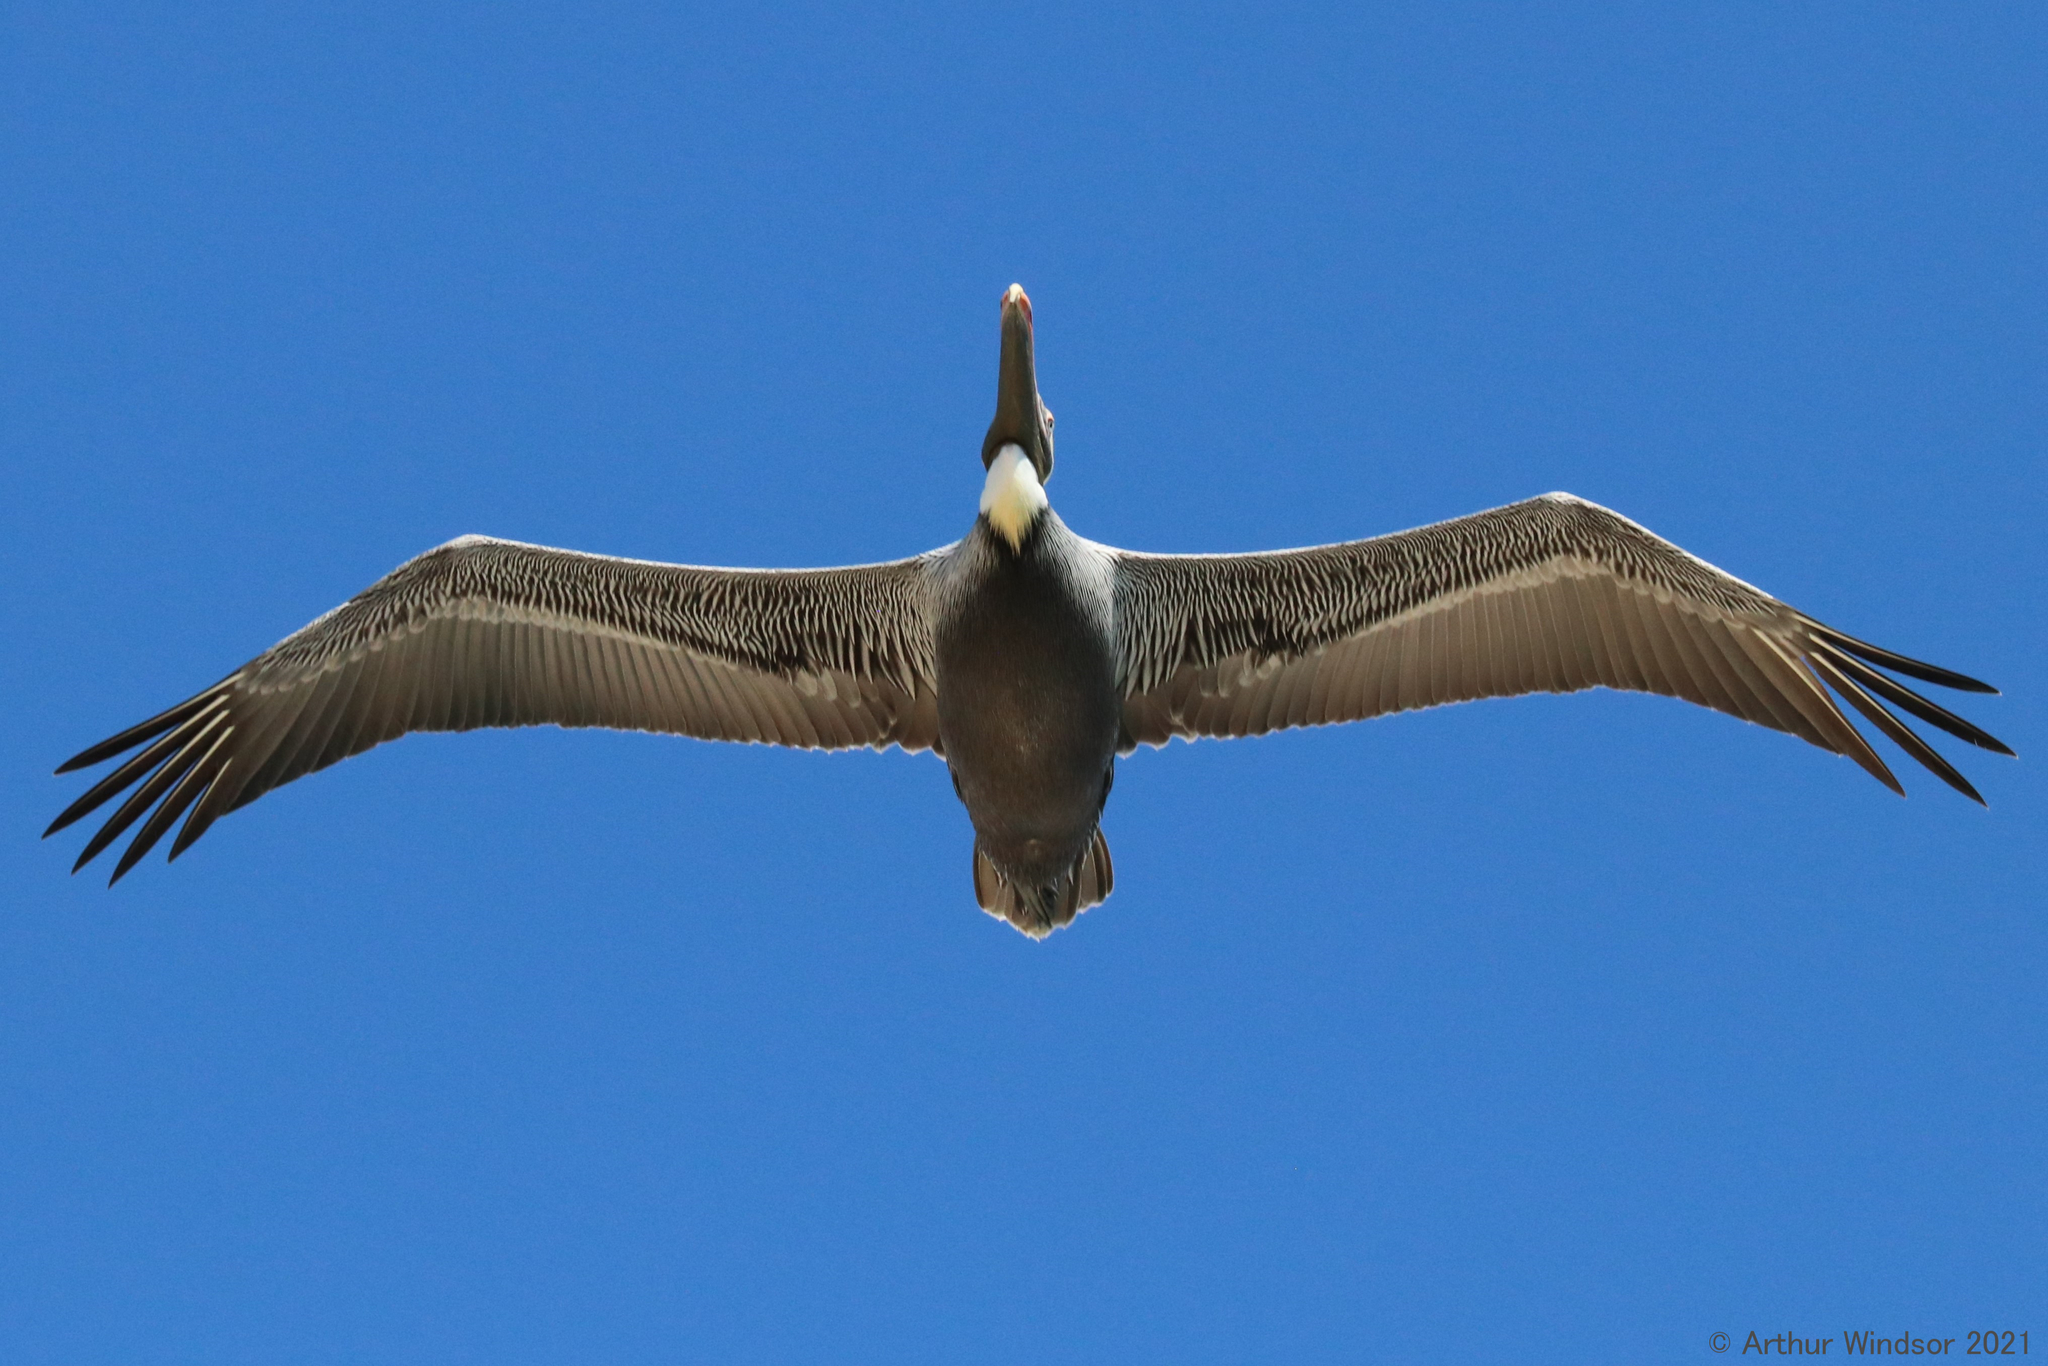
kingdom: Animalia
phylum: Chordata
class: Aves
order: Pelecaniformes
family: Pelecanidae
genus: Pelecanus
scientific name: Pelecanus occidentalis
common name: Brown pelican
